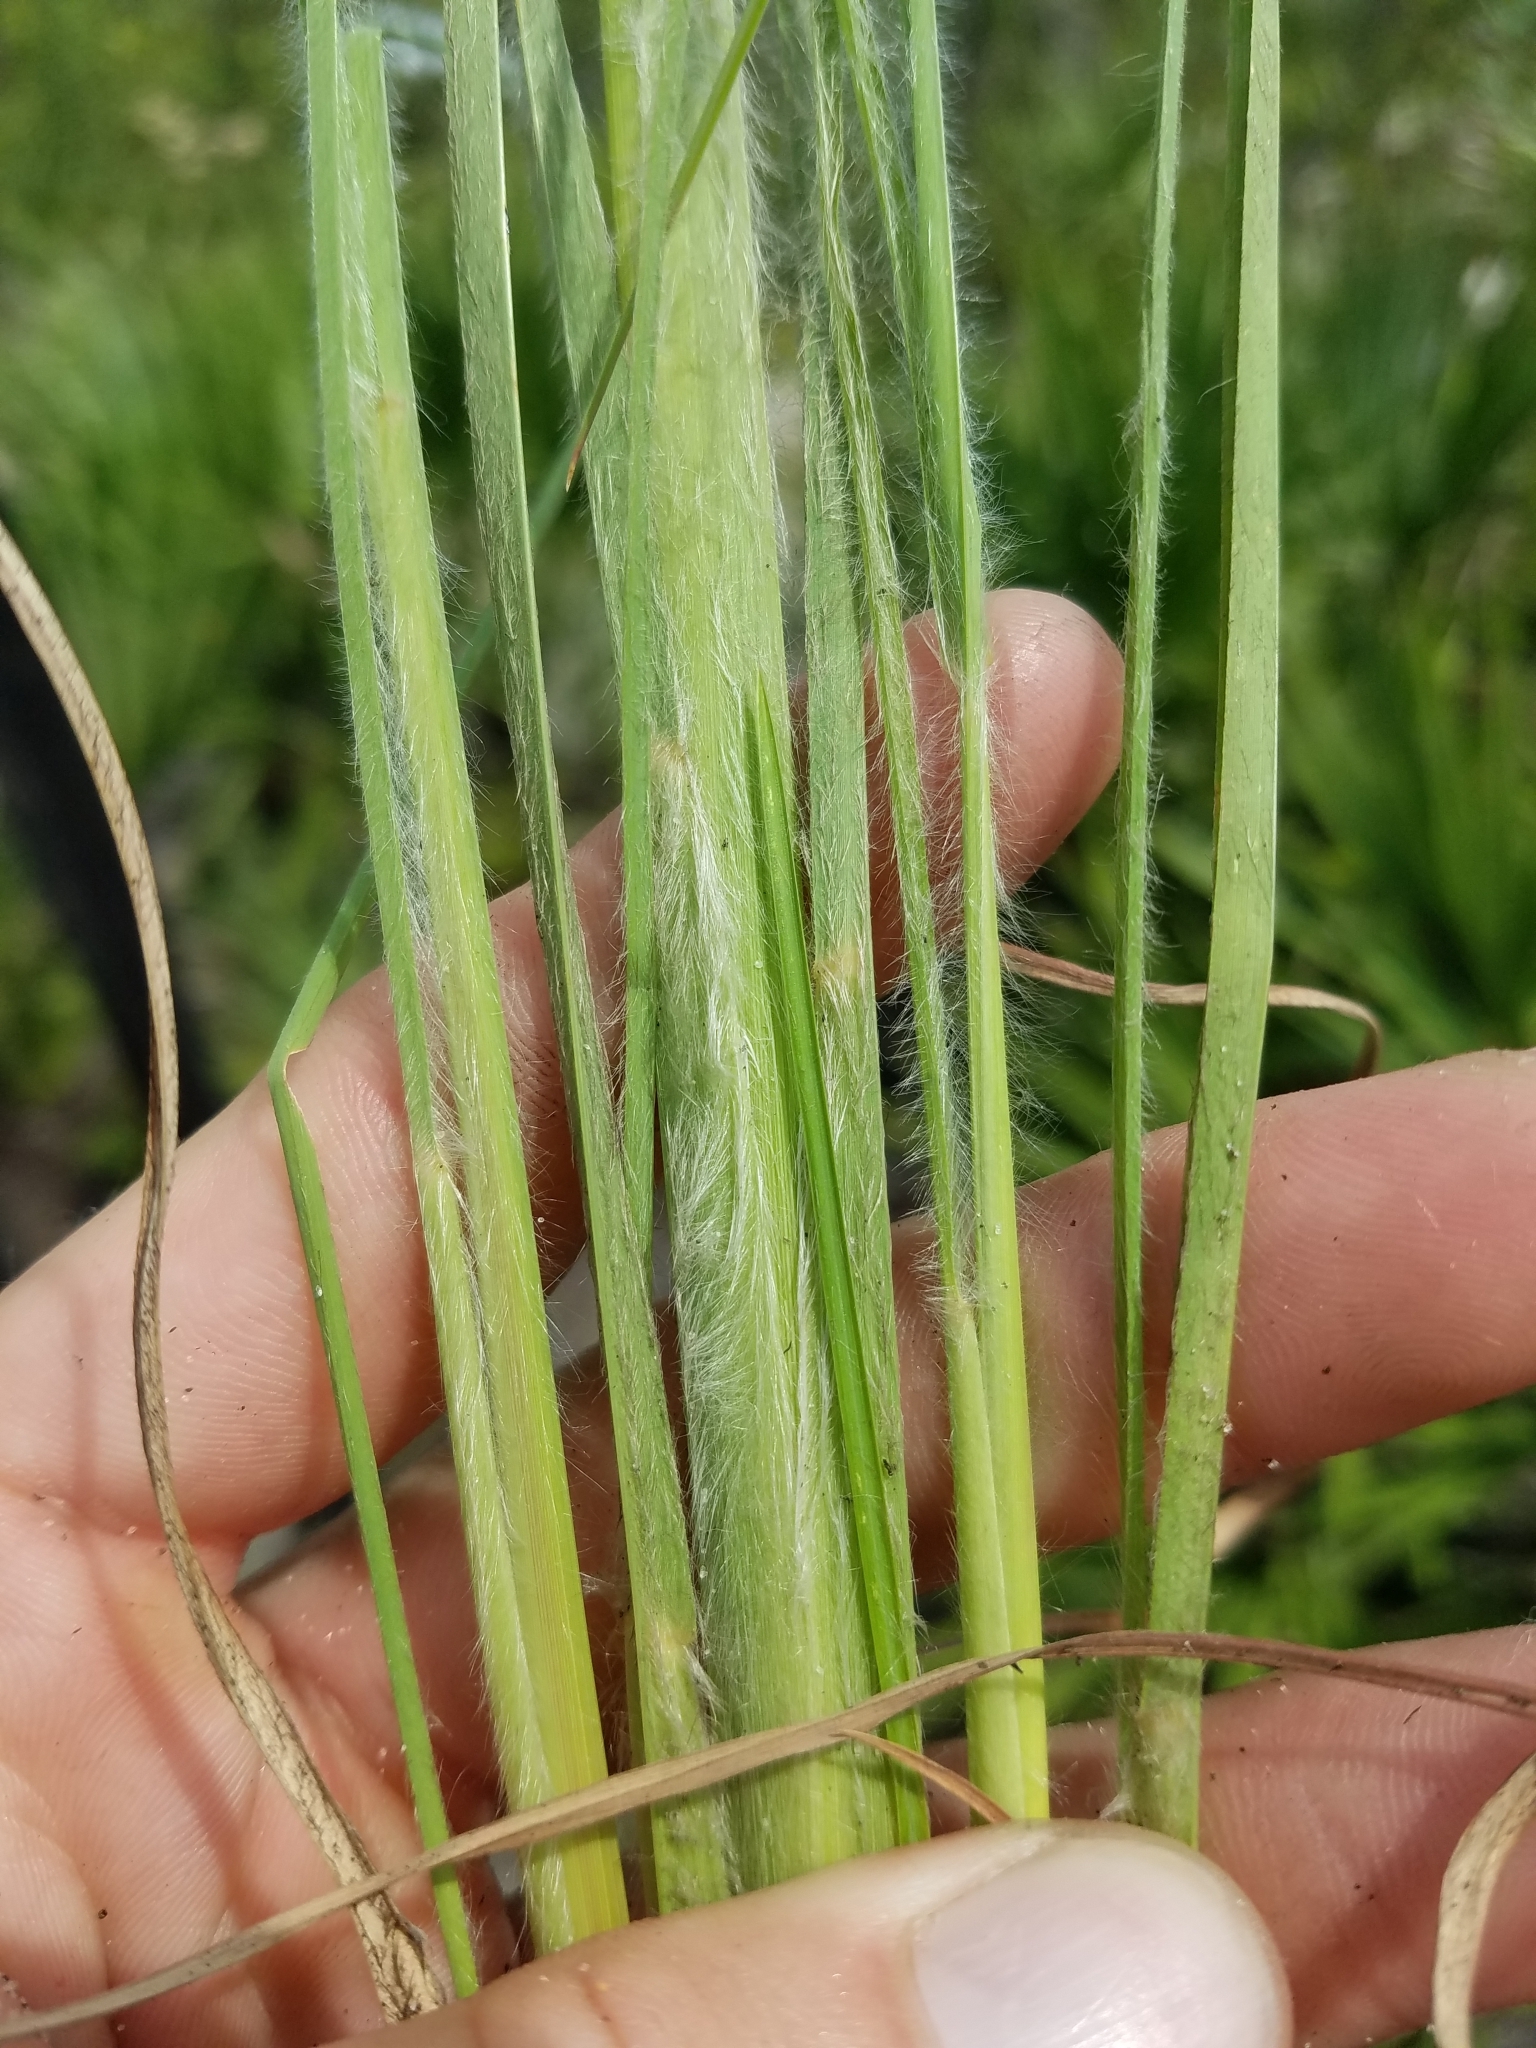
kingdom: Plantae
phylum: Tracheophyta
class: Liliopsida
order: Poales
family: Poaceae
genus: Andropogon
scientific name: Andropogon hirsutior
